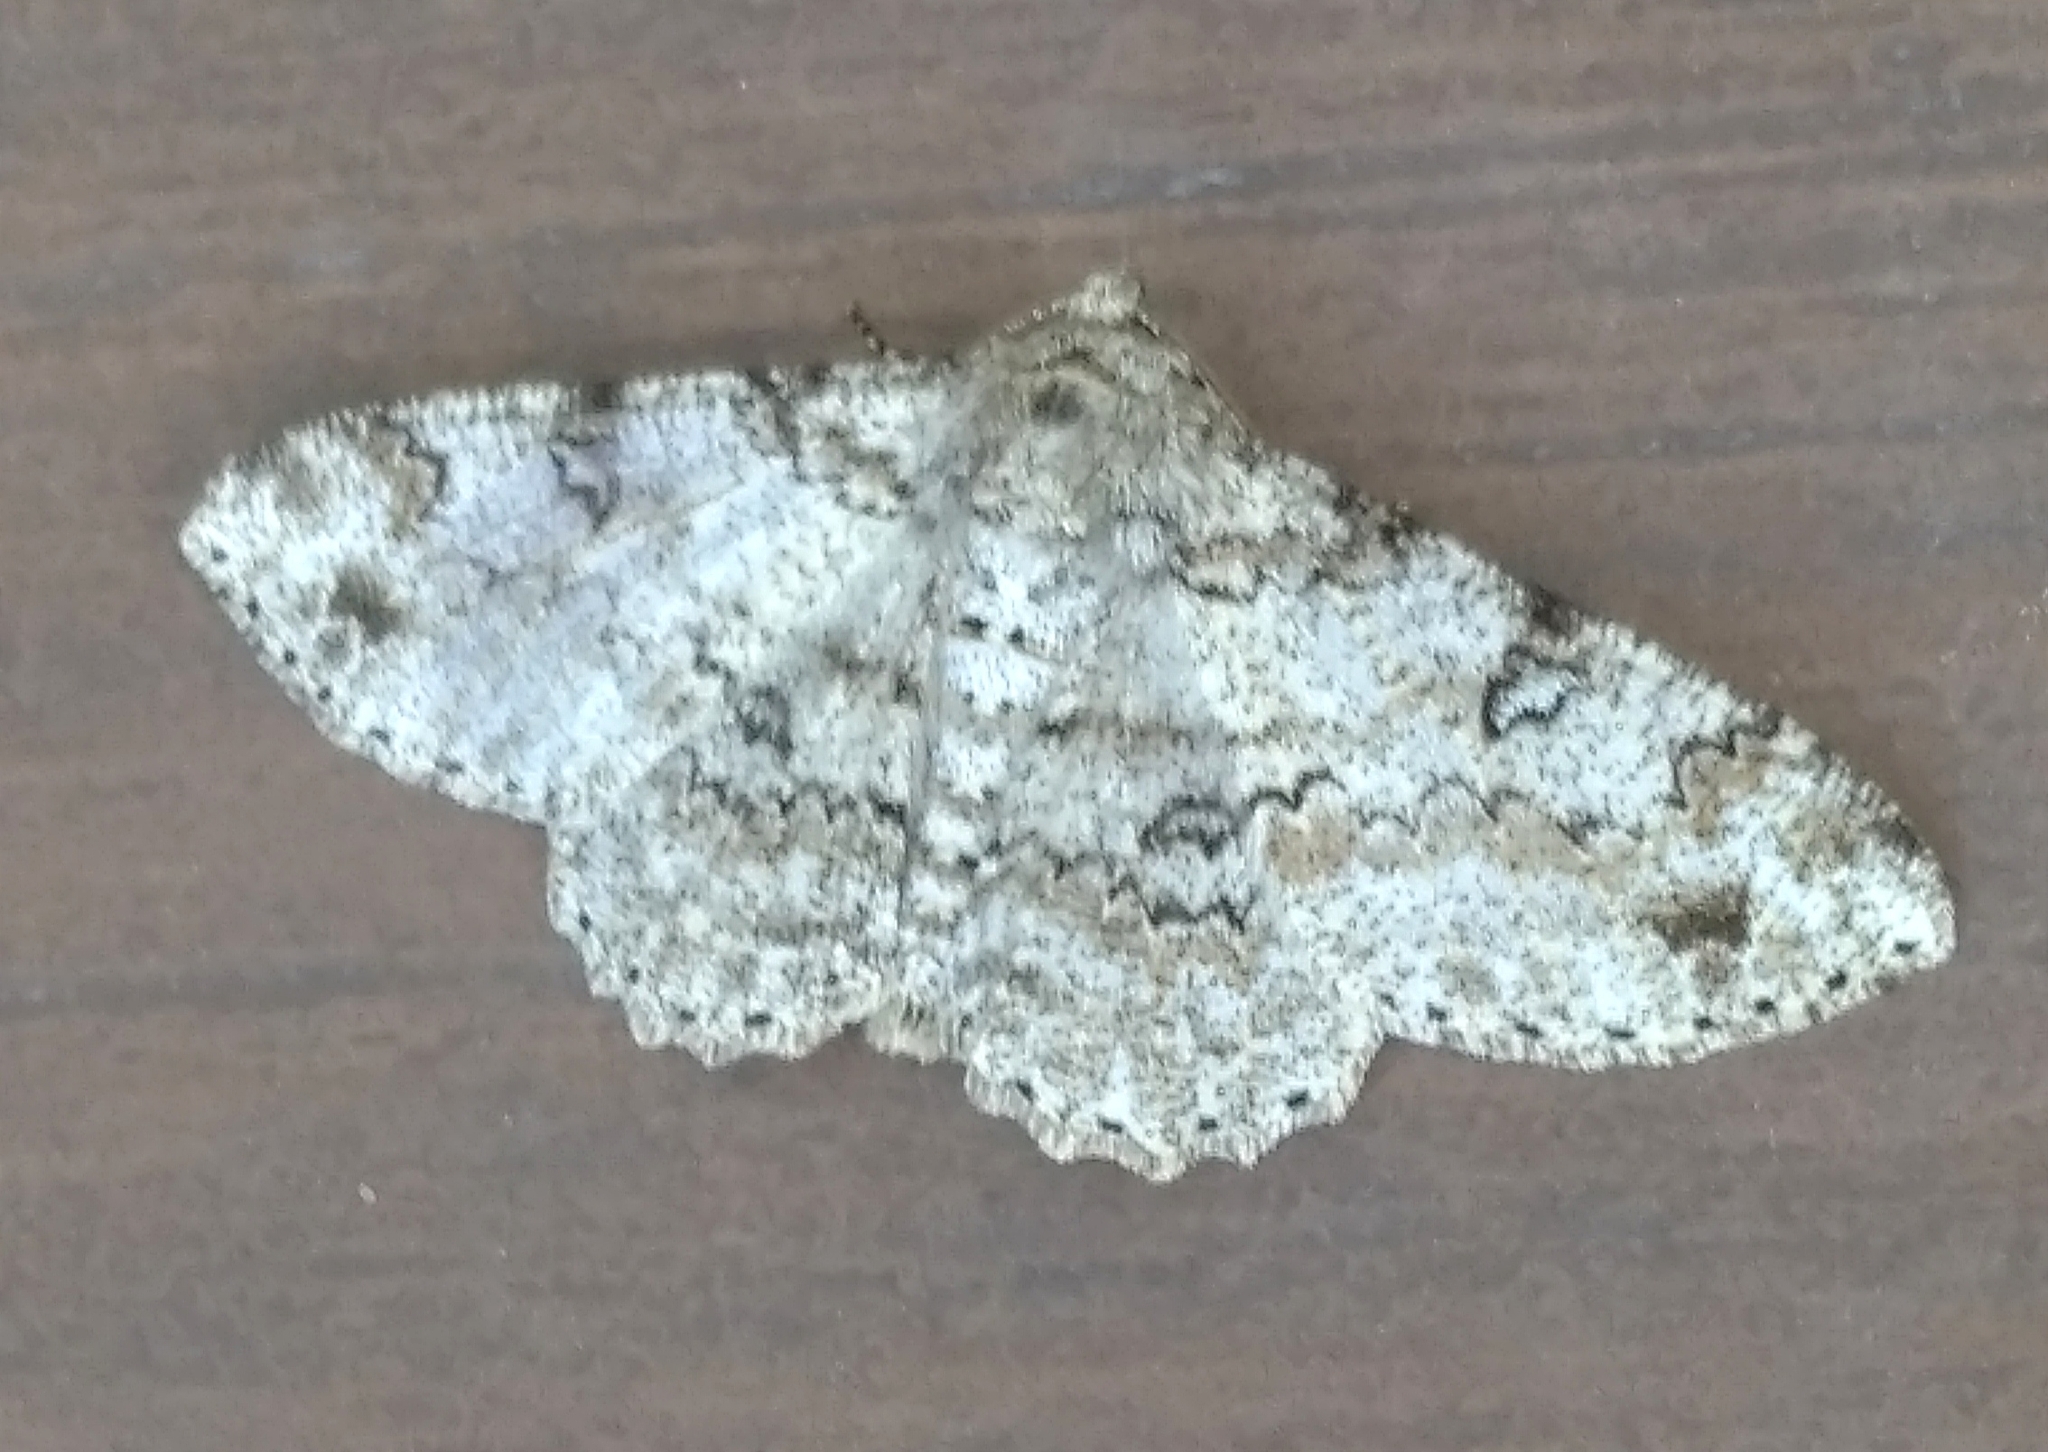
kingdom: Animalia
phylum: Arthropoda
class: Insecta
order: Lepidoptera
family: Geometridae
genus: Ascotis
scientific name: Ascotis selenaria
